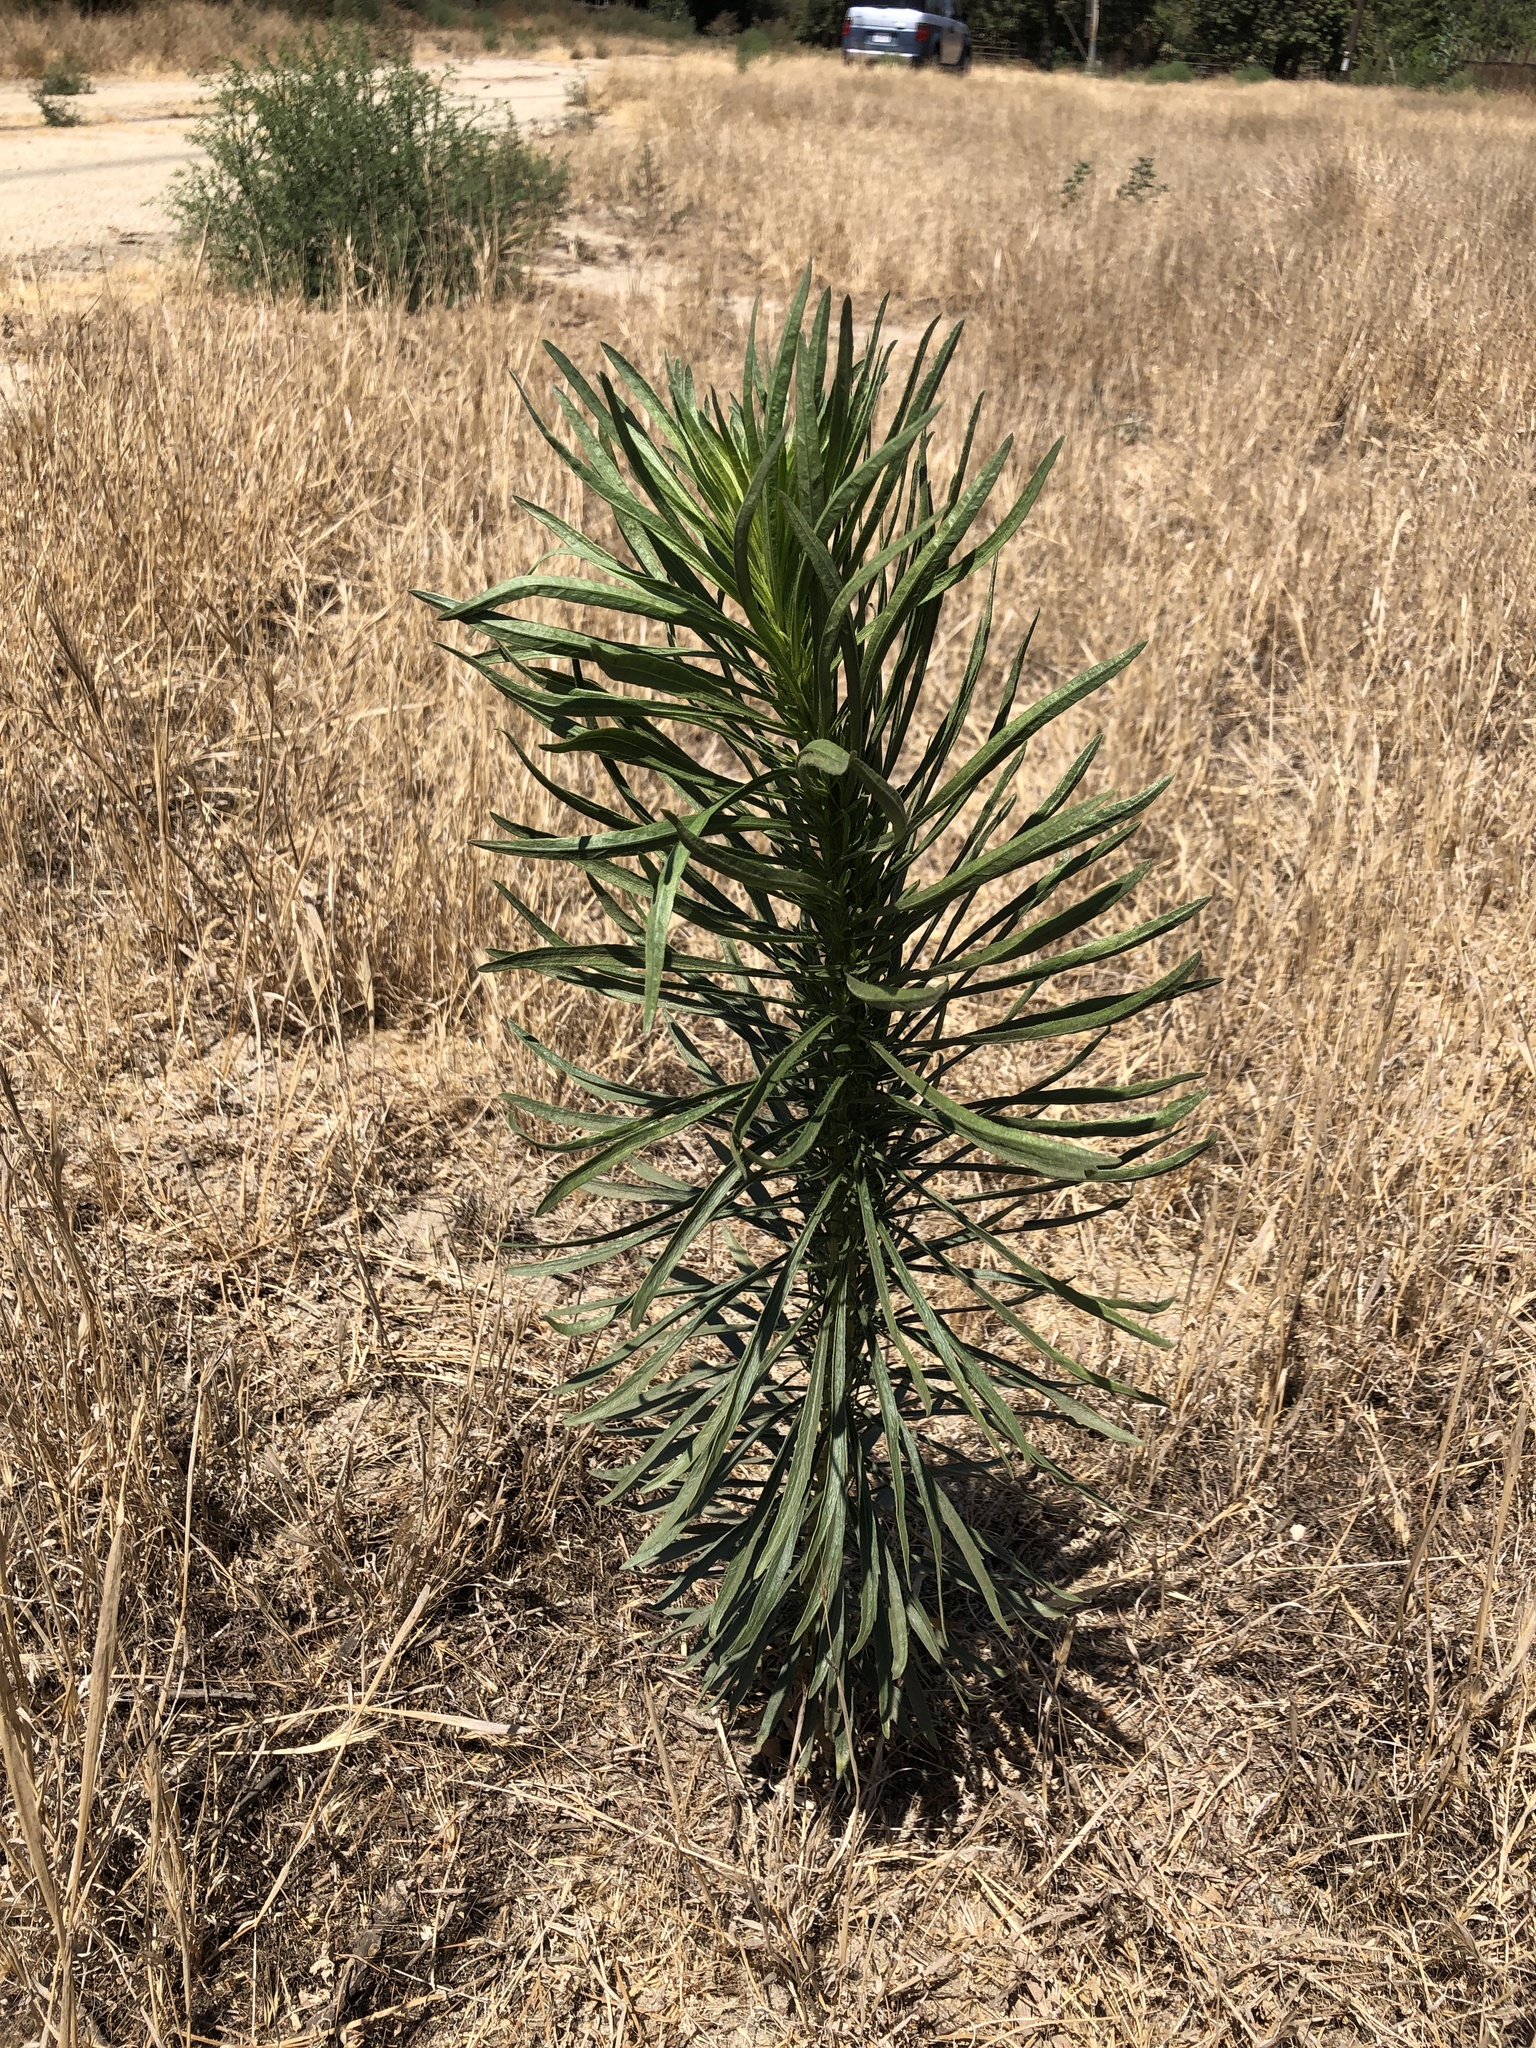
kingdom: Plantae
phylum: Tracheophyta
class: Magnoliopsida
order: Asterales
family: Asteraceae
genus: Erigeron
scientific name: Erigeron canadensis
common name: Canadian fleabane
